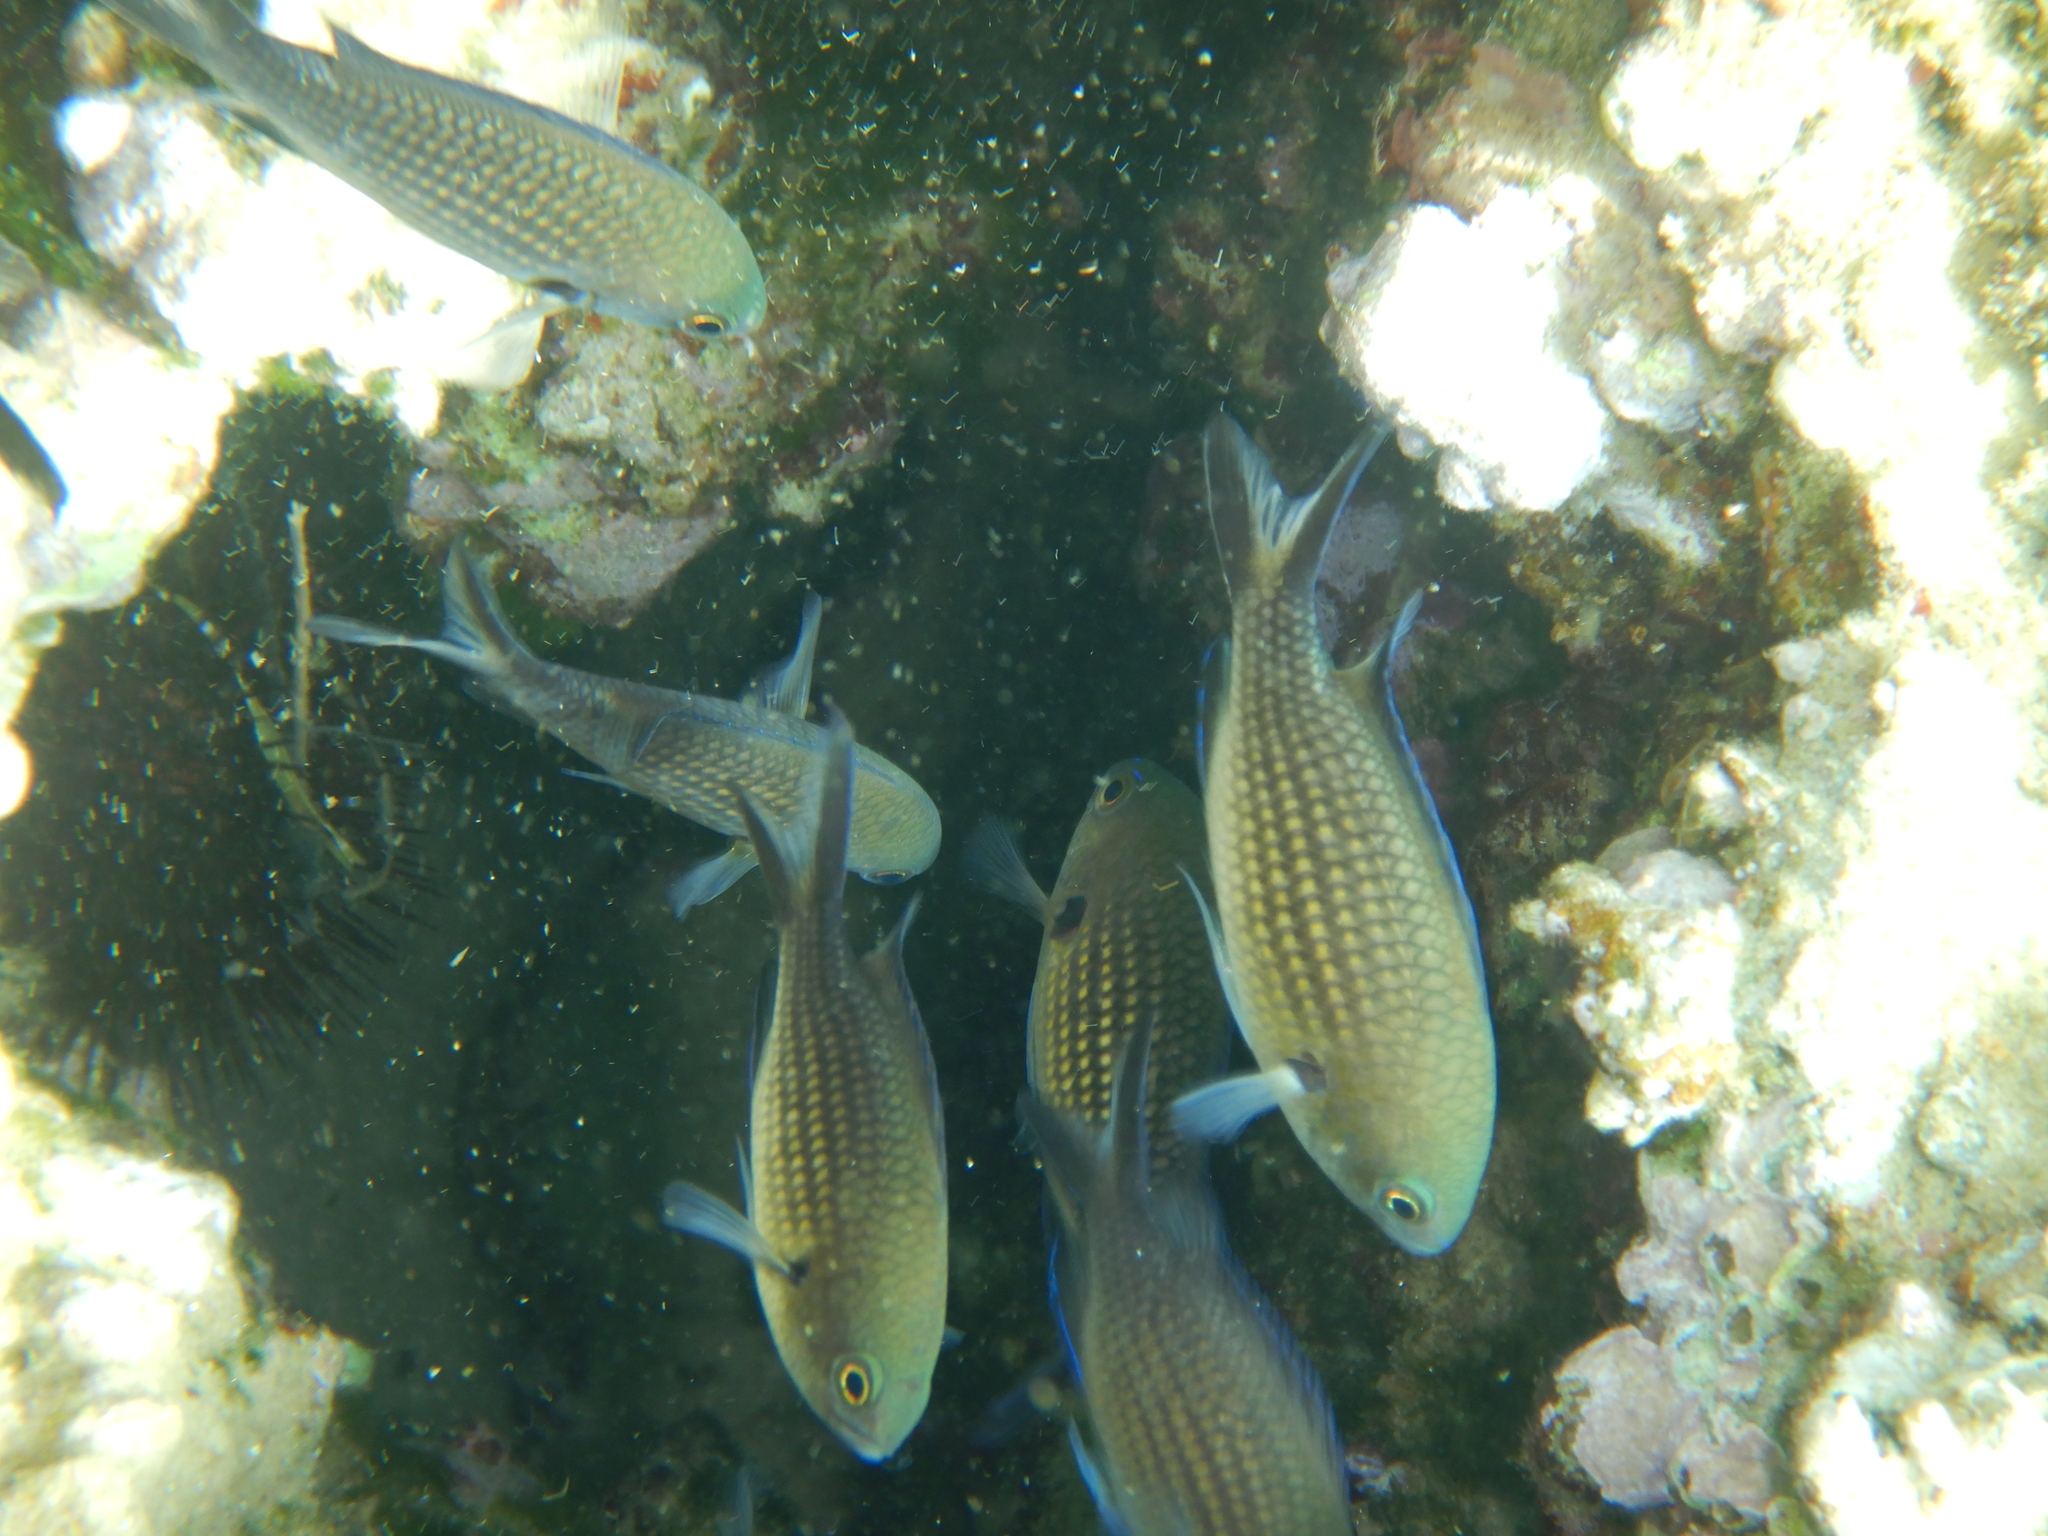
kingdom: Animalia
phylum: Chordata
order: Perciformes
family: Pomacentridae
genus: Chromis
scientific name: Chromis chromis
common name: Damselfish
